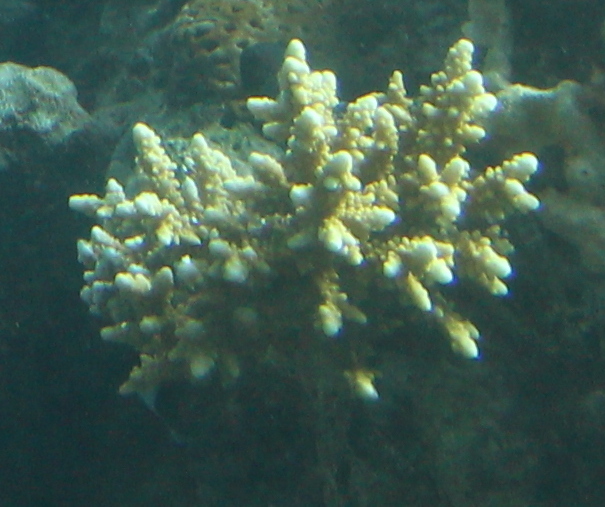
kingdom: Animalia
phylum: Cnidaria
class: Anthozoa
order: Scleractinia
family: Acroporidae
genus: Acropora
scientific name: Acropora hemprichii
